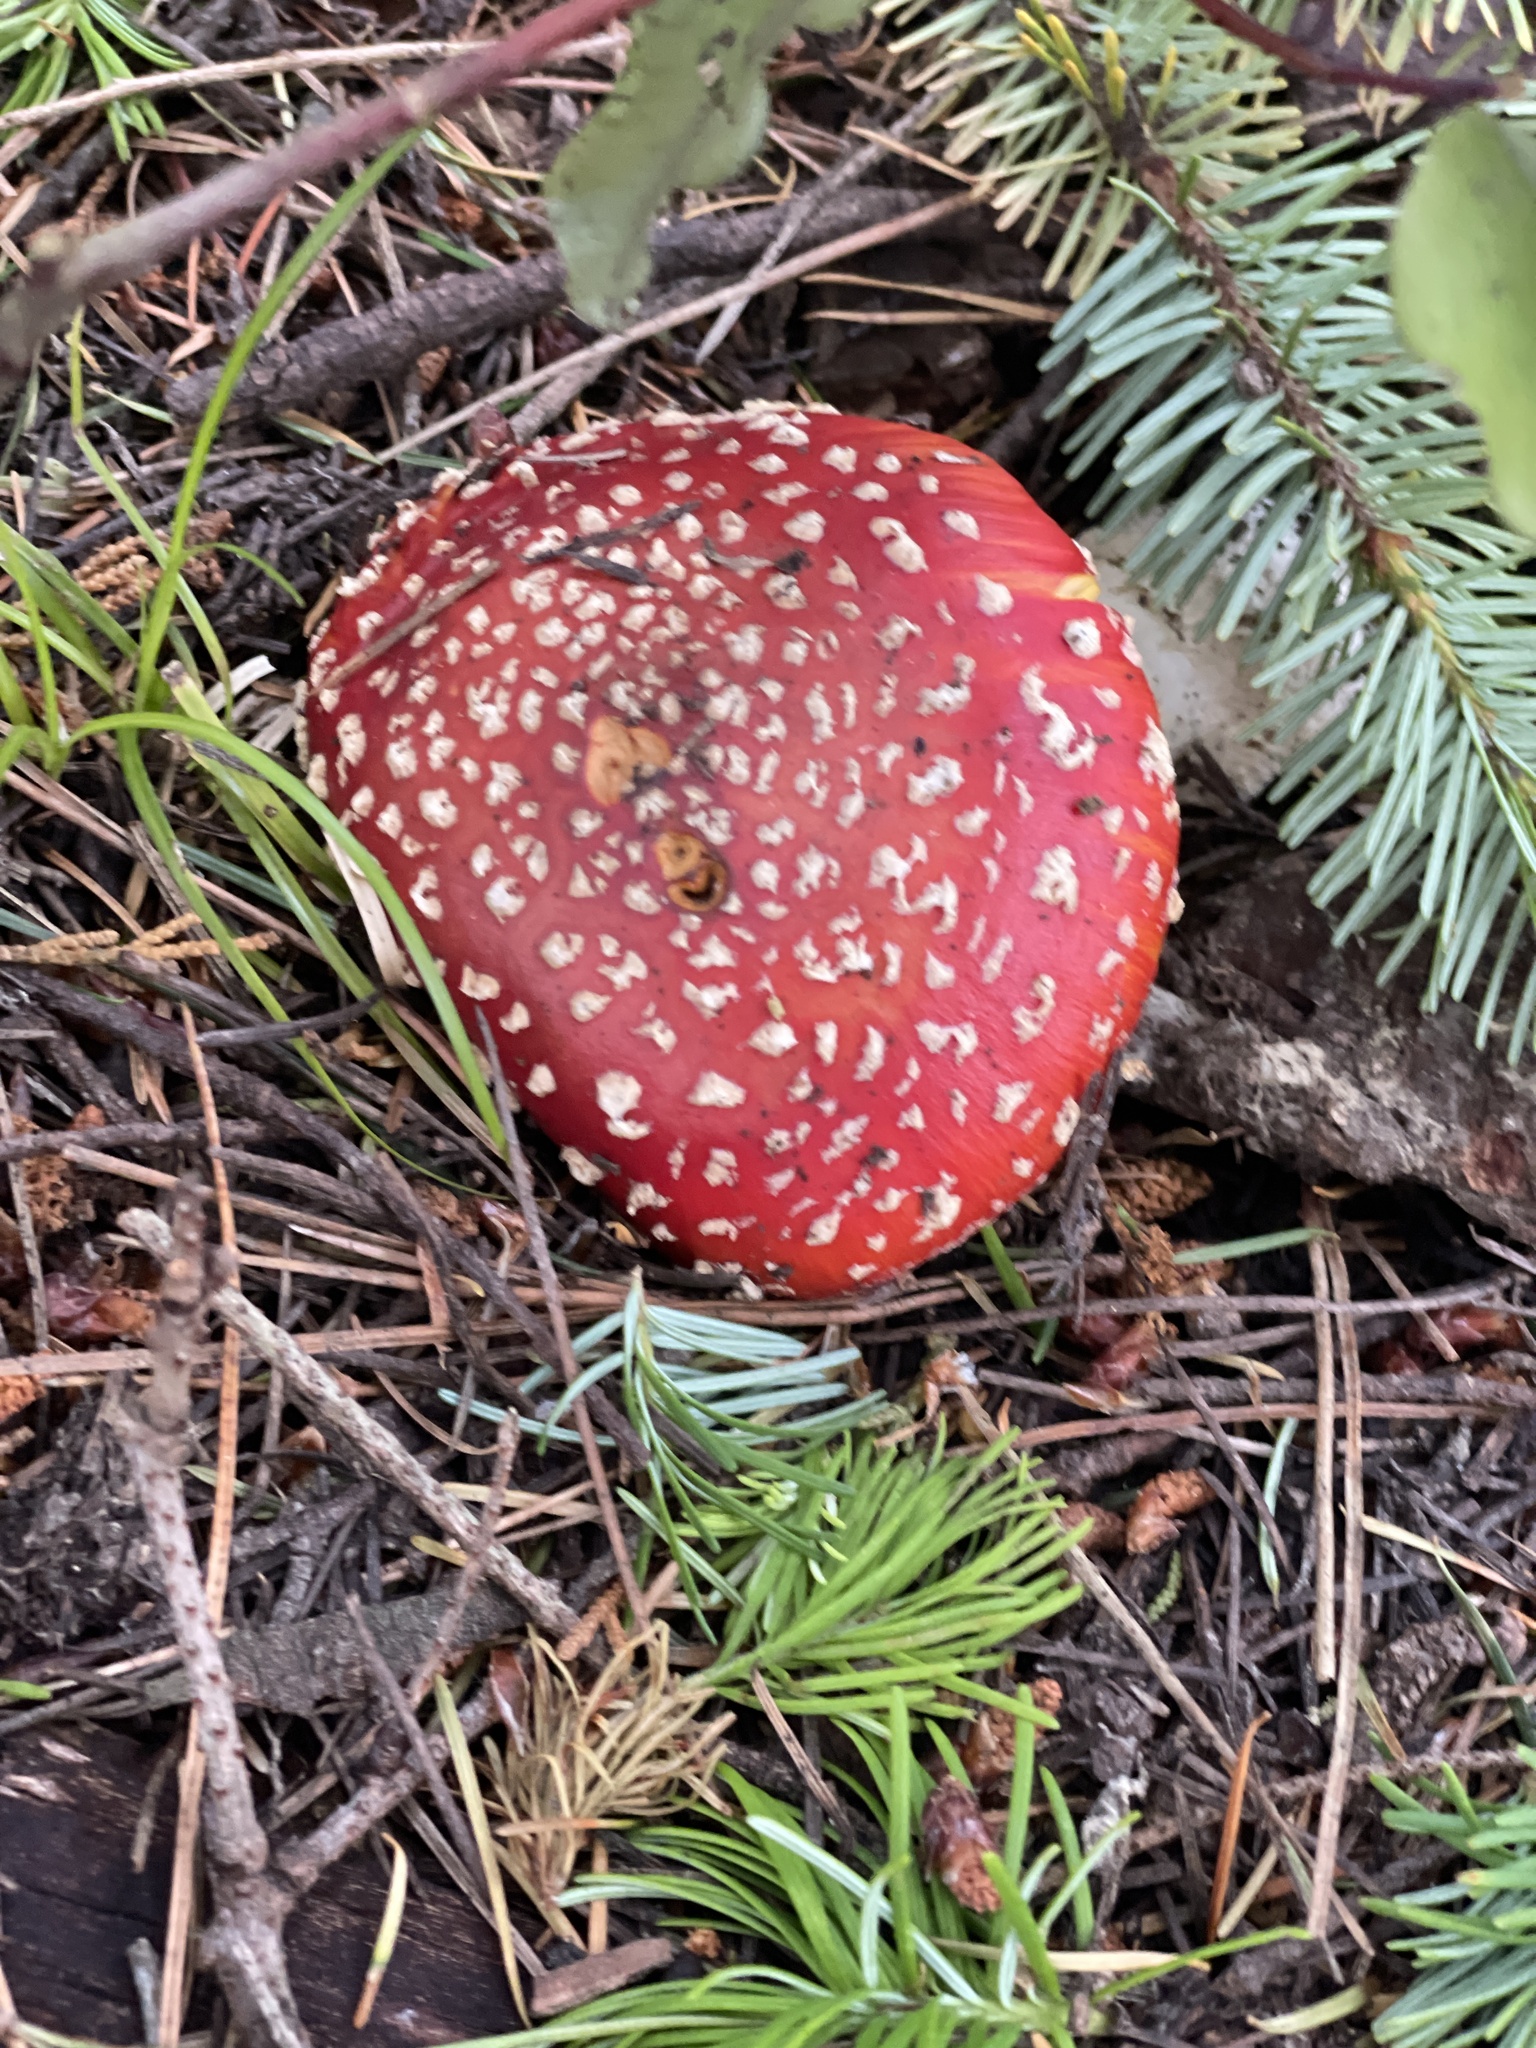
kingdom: Fungi
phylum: Basidiomycota
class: Agaricomycetes
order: Agaricales
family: Amanitaceae
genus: Amanita
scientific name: Amanita muscaria
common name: Fly agaric
